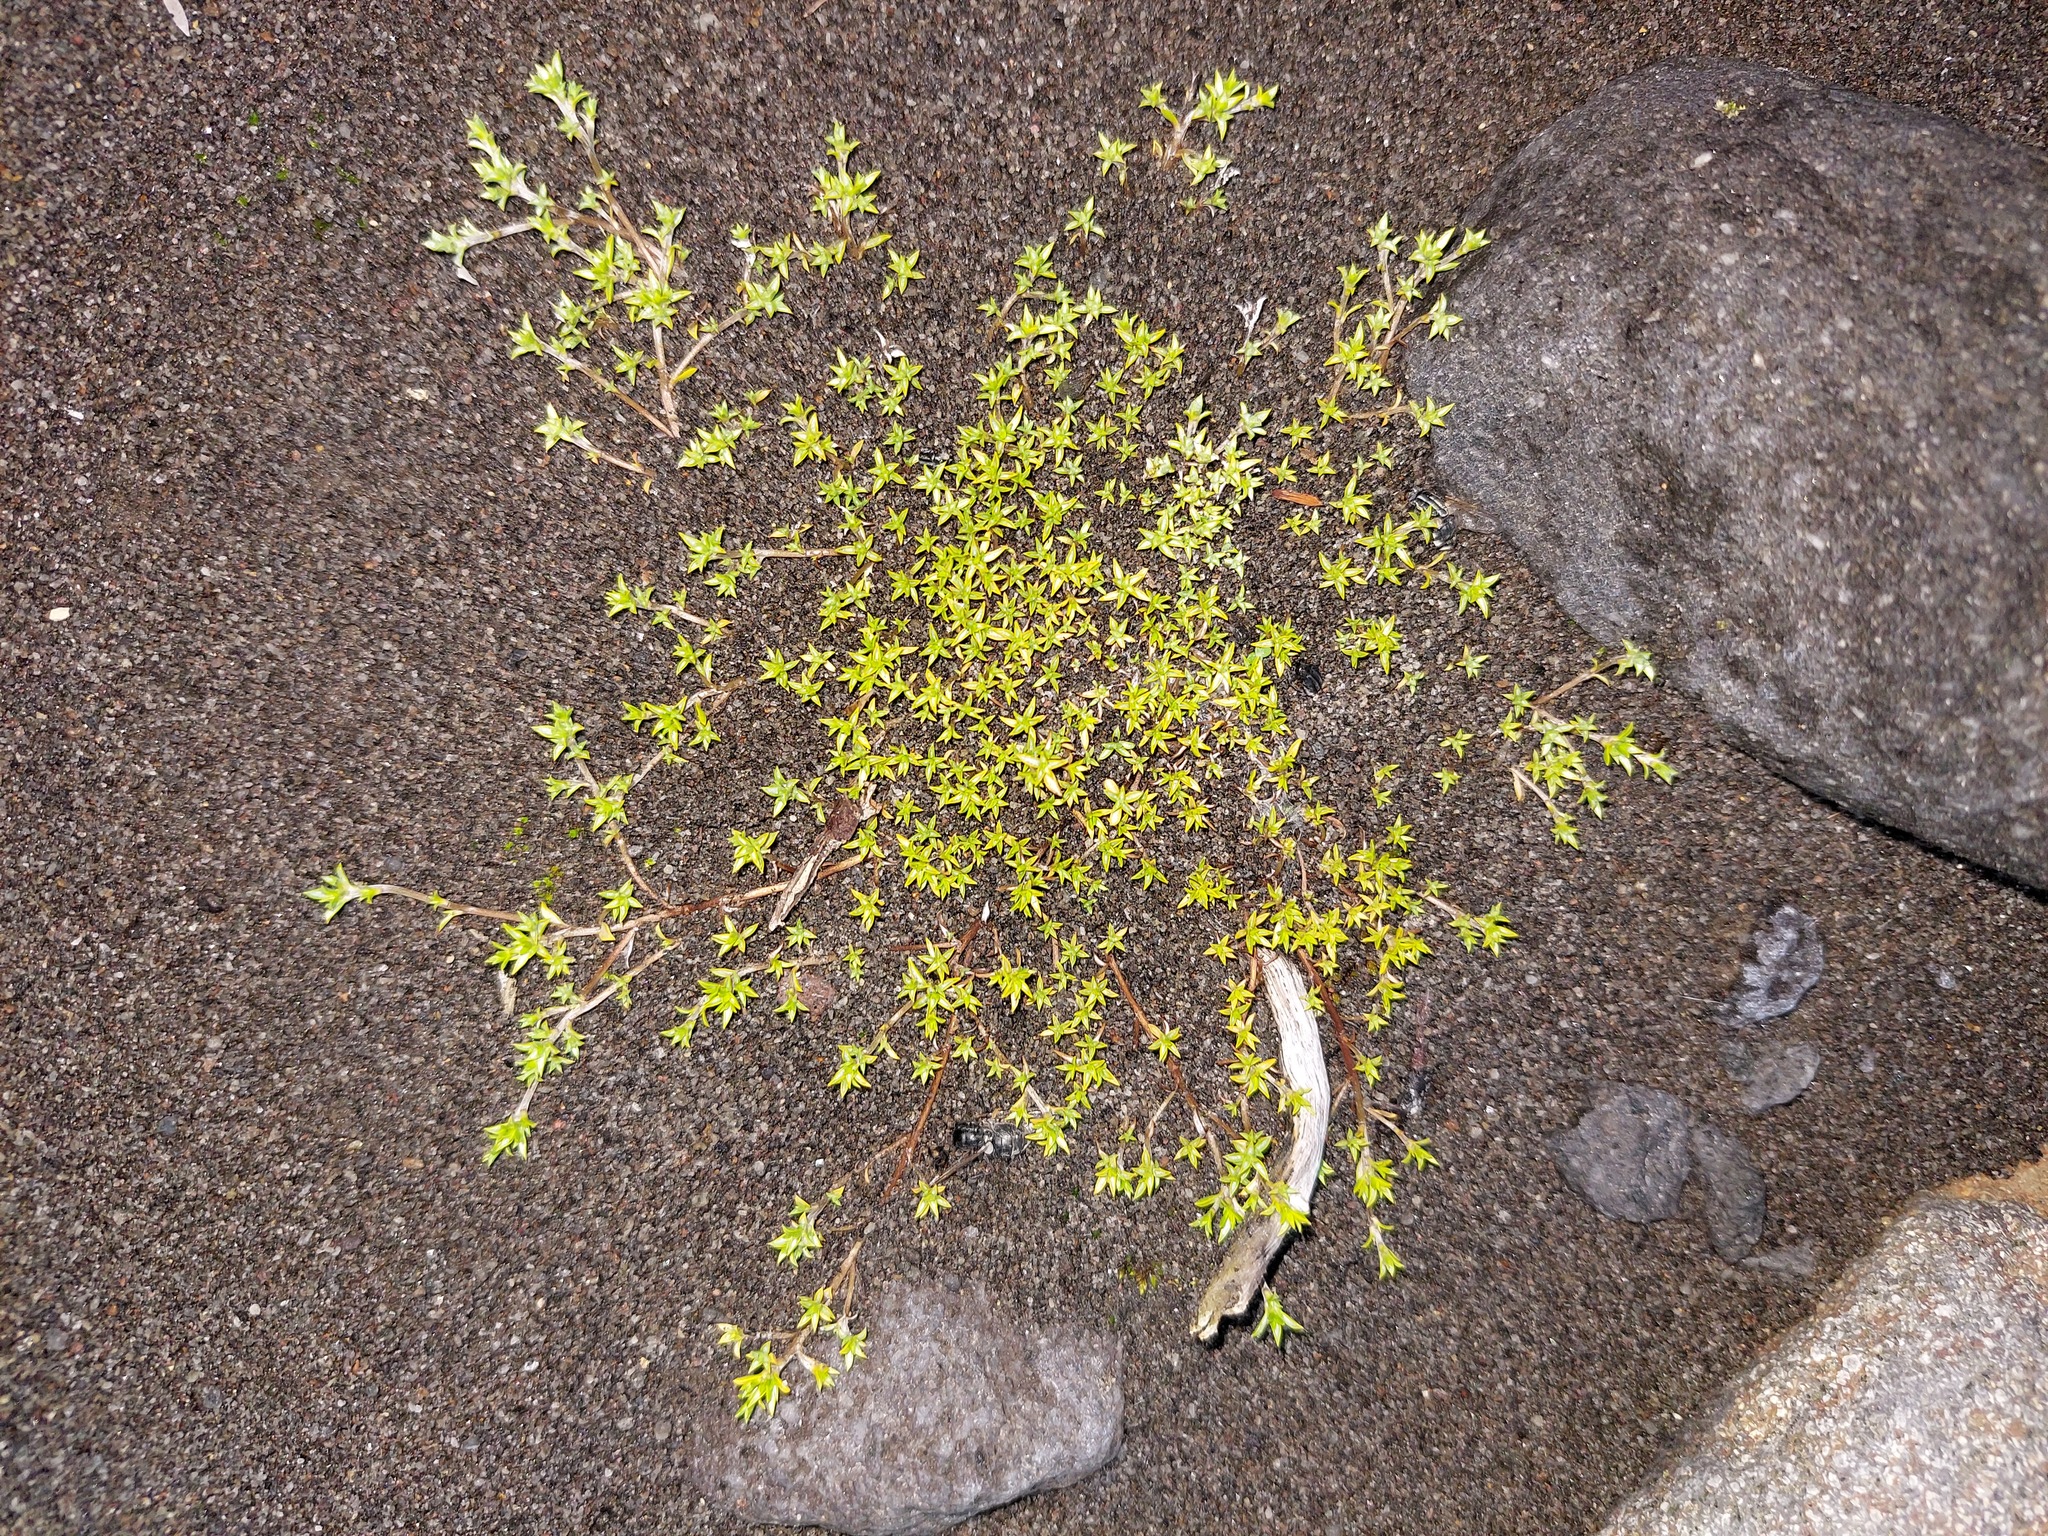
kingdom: Plantae
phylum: Tracheophyta
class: Magnoliopsida
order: Asterales
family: Asteraceae
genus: Raoulia
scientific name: Raoulia tenuicaulis
